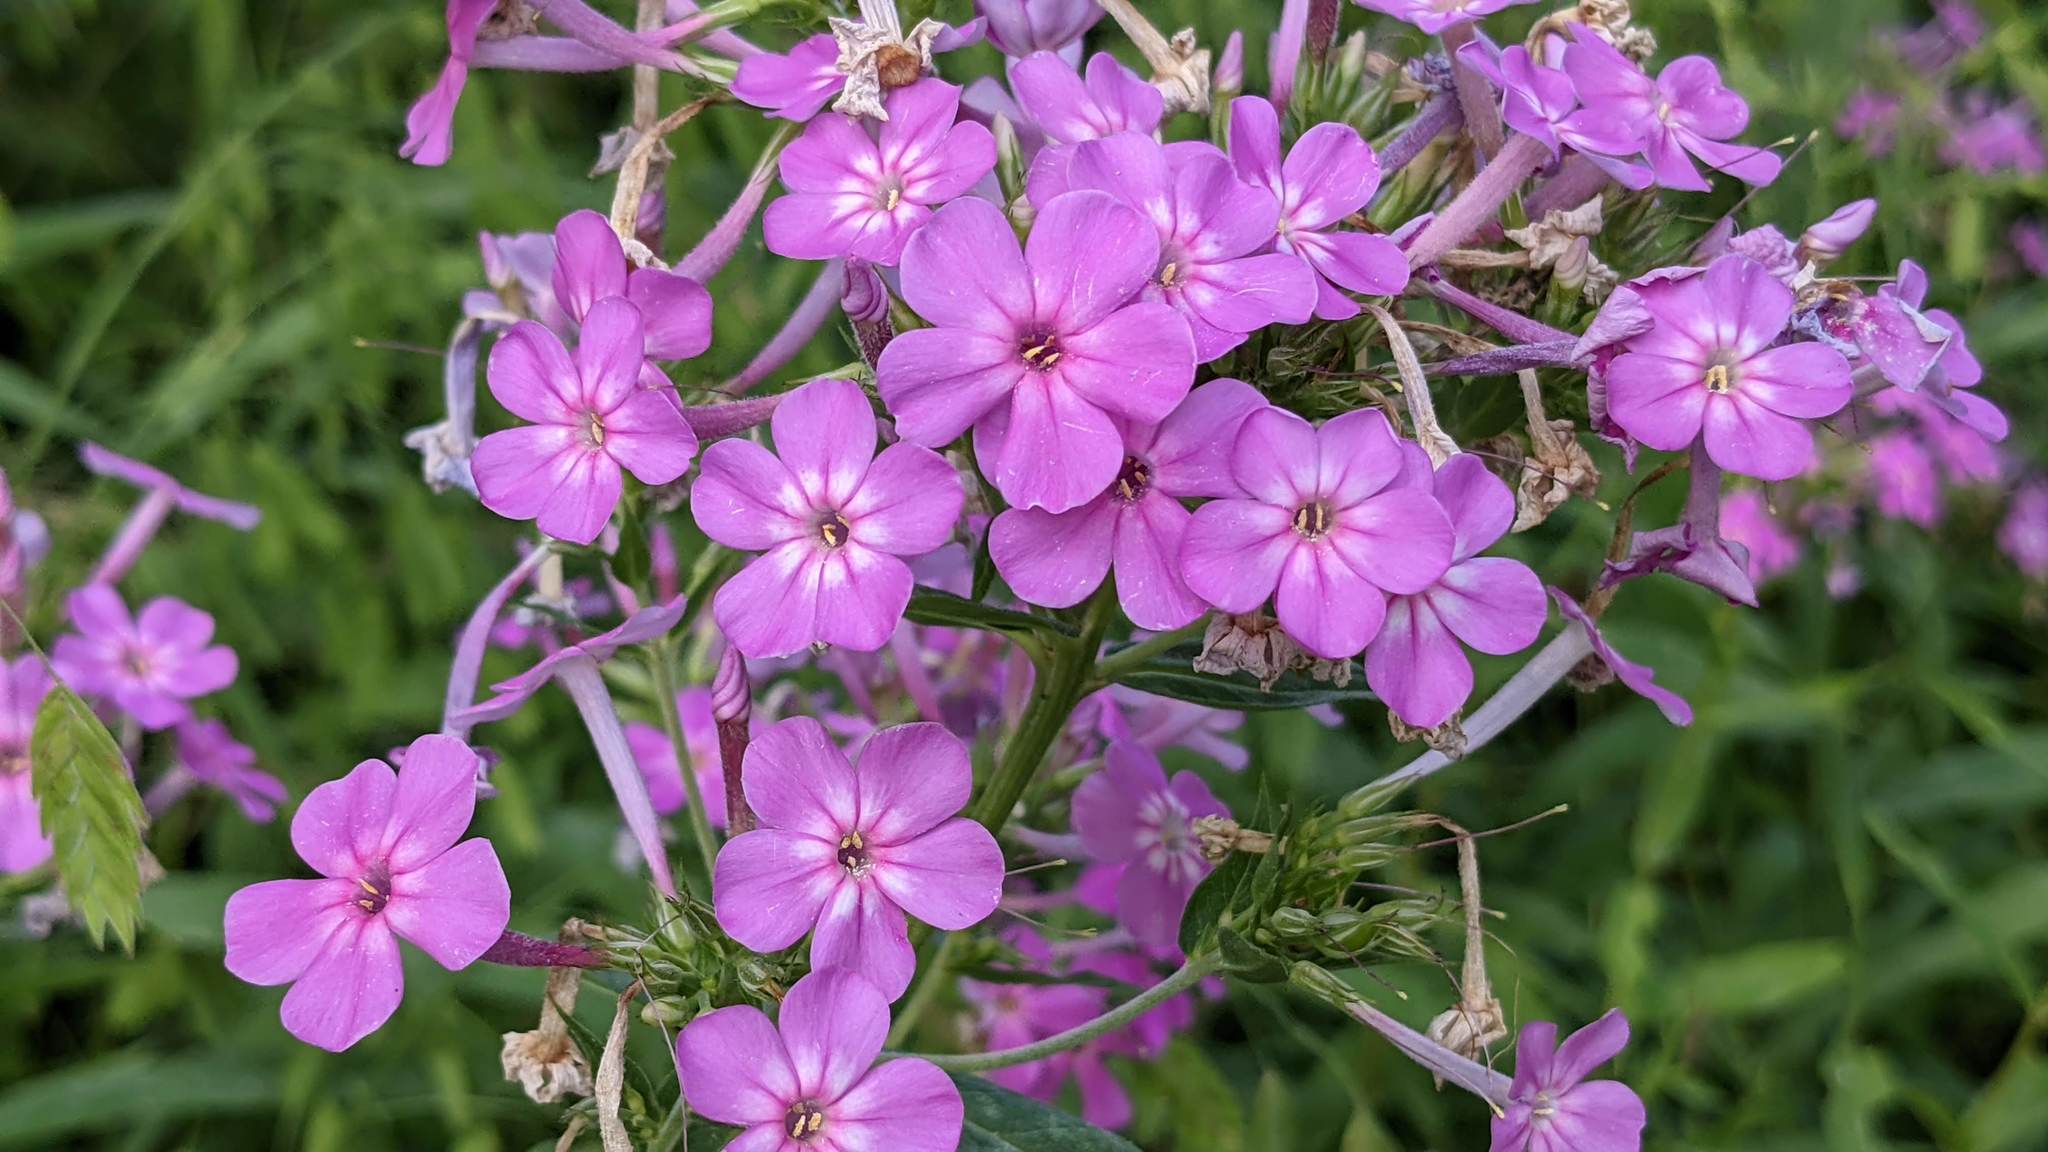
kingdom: Plantae
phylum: Tracheophyta
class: Magnoliopsida
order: Ericales
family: Polemoniaceae
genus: Phlox
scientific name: Phlox paniculata
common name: Fall phlox
